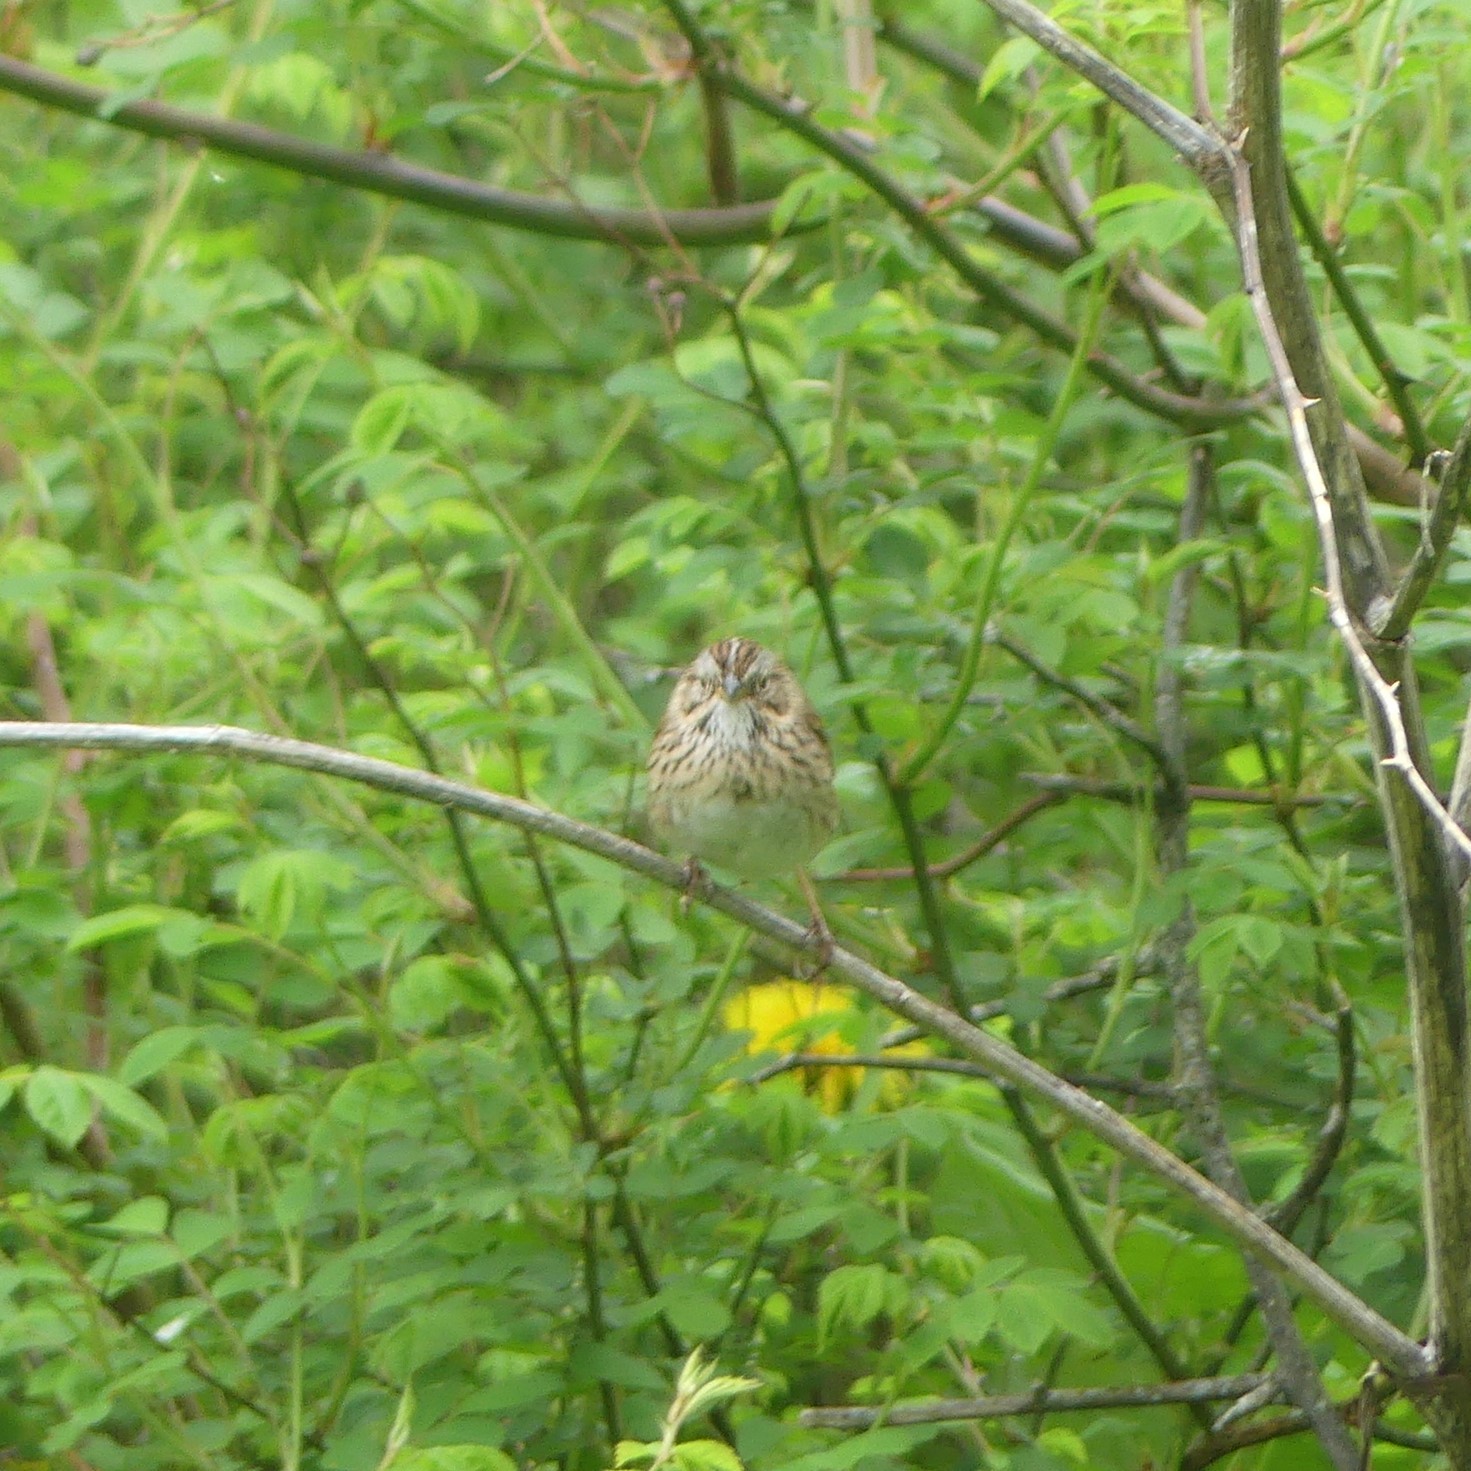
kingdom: Animalia
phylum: Chordata
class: Aves
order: Passeriformes
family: Passerellidae
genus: Melospiza
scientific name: Melospiza lincolnii
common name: Lincoln's sparrow
